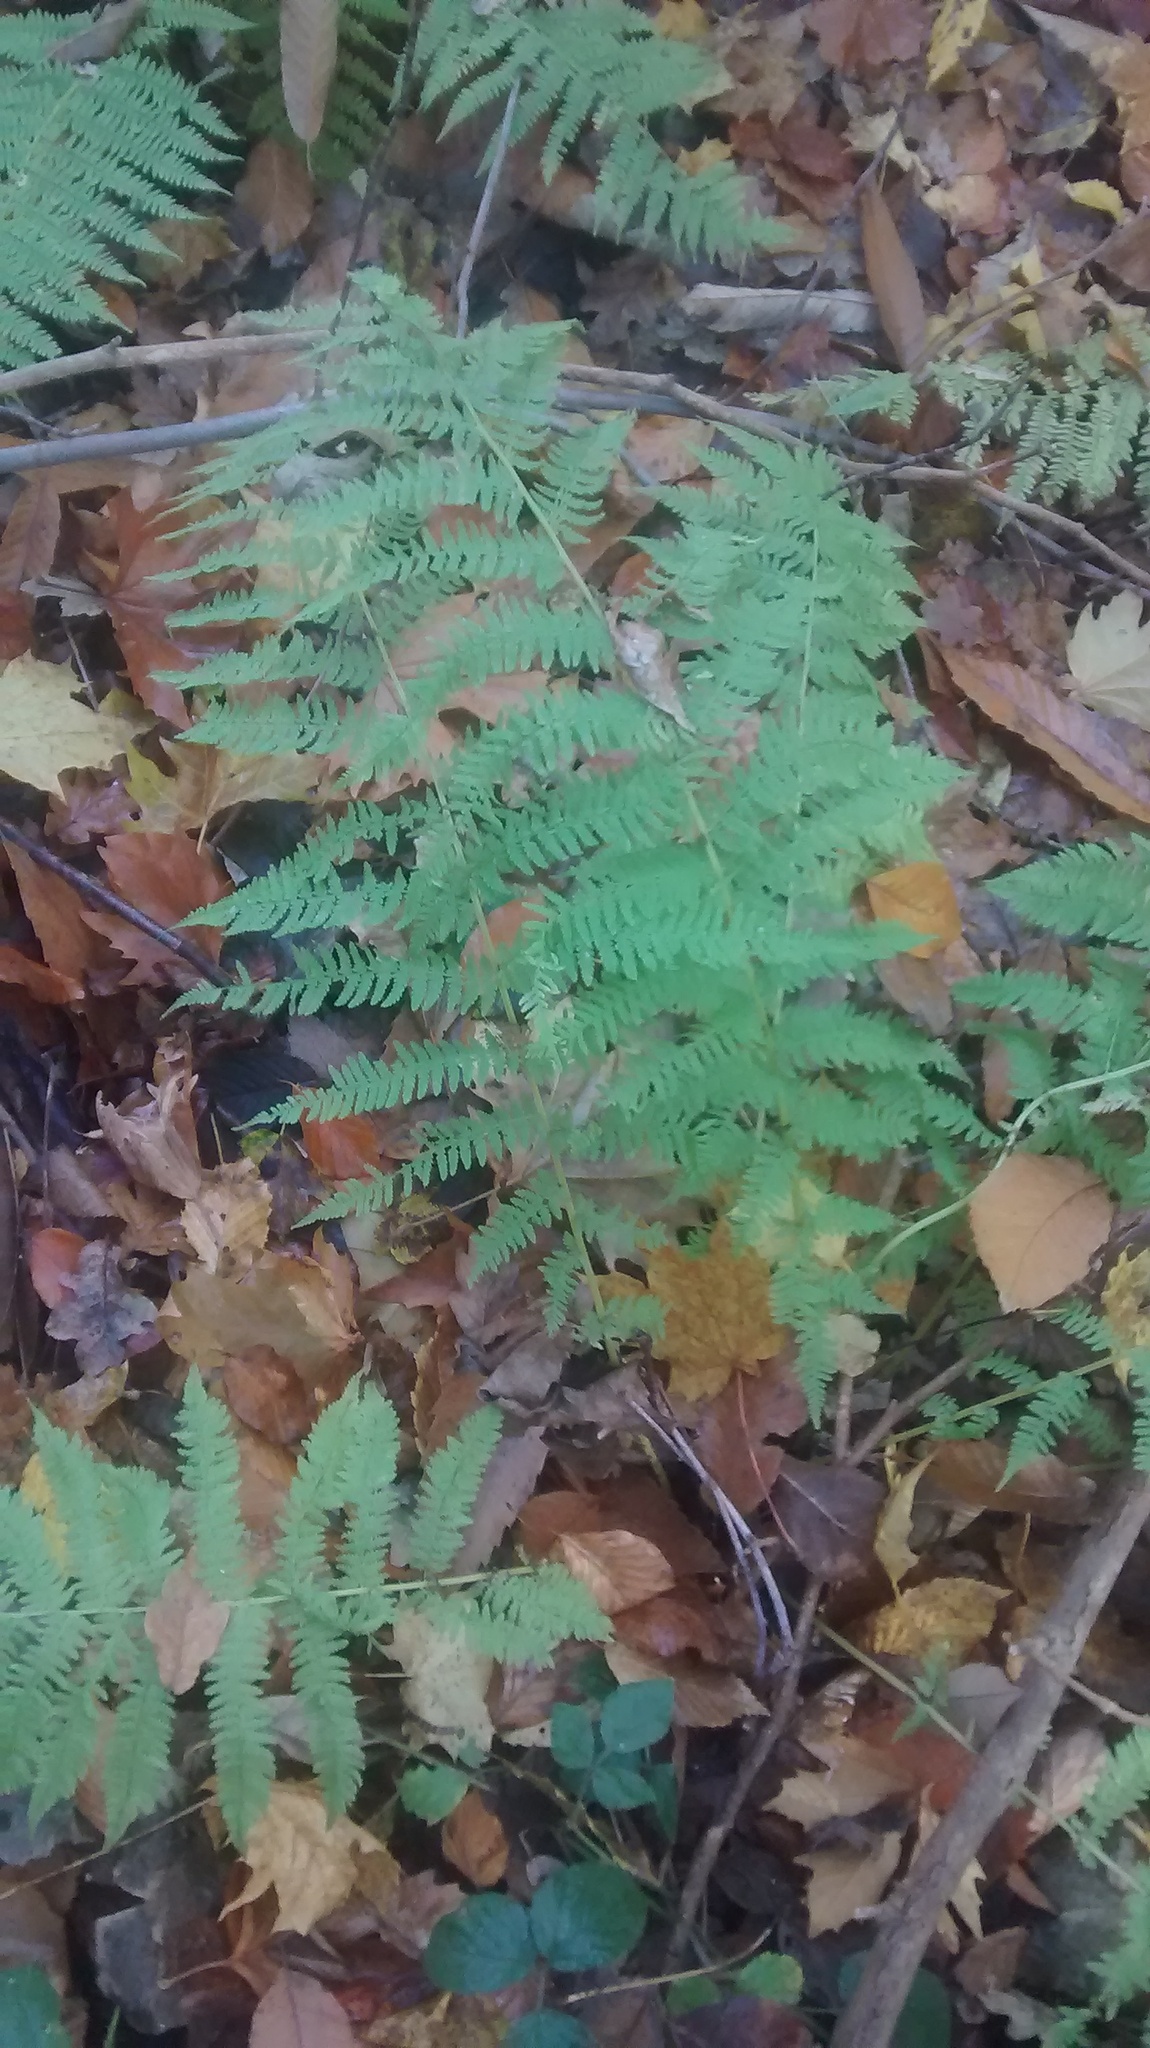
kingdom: Plantae
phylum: Tracheophyta
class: Polypodiopsida
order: Polypodiales
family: Athyriaceae
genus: Athyrium
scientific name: Athyrium filix-femina
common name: Lady fern
